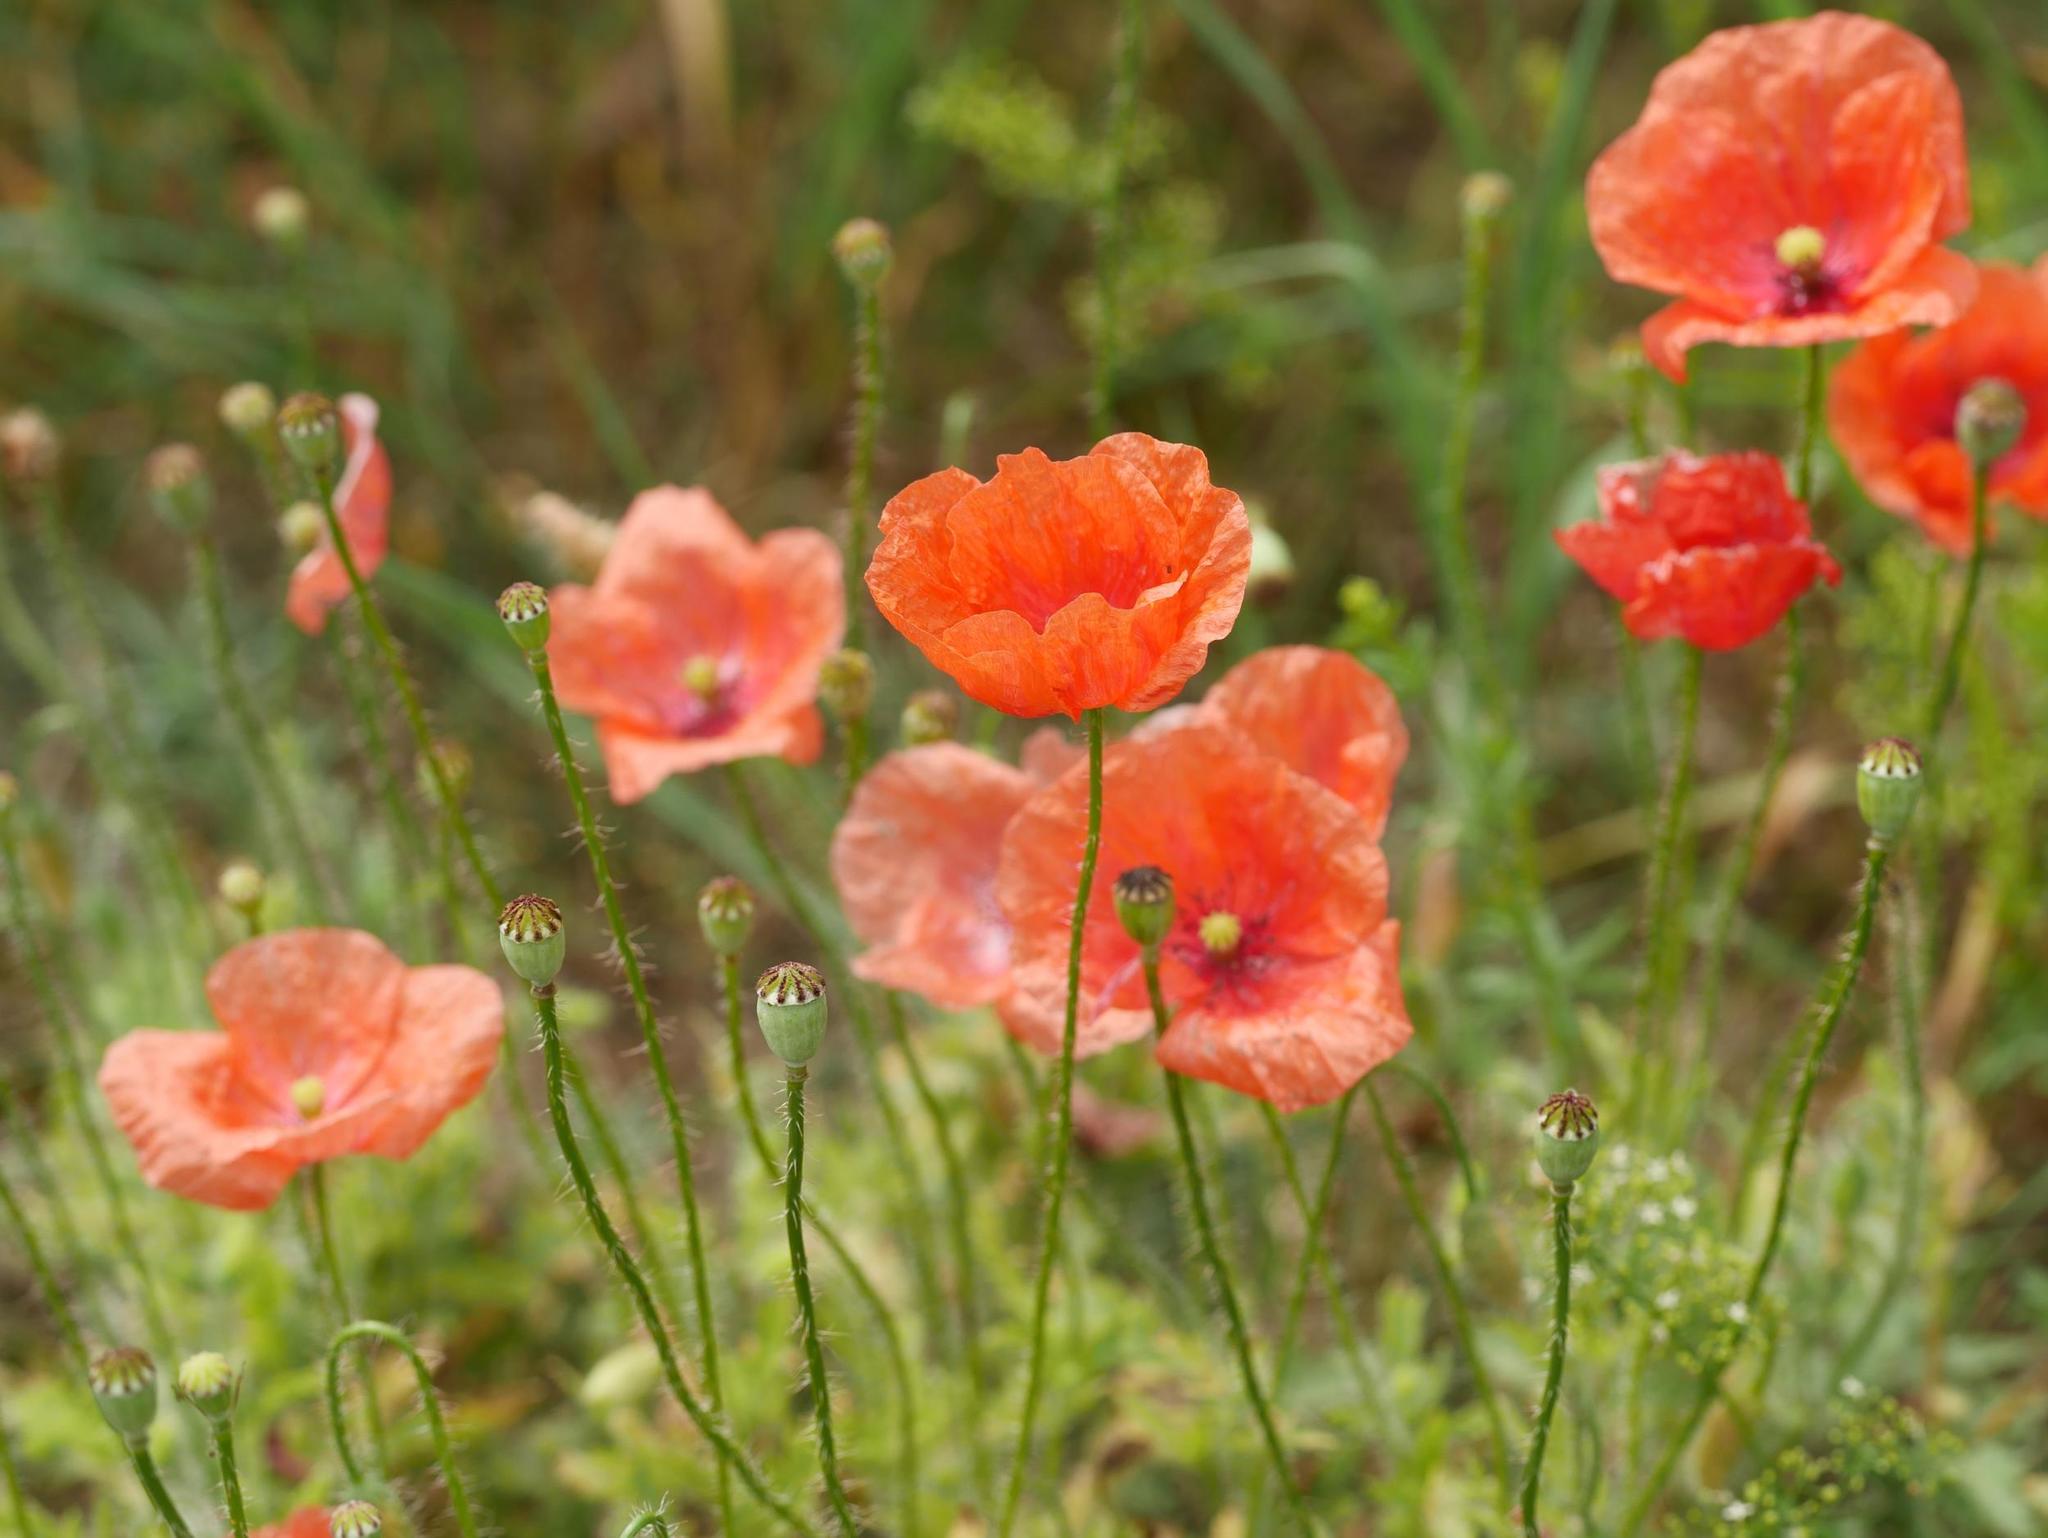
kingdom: Plantae
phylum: Tracheophyta
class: Magnoliopsida
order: Ranunculales
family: Papaveraceae
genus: Papaver
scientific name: Papaver rhoeas
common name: Corn poppy
